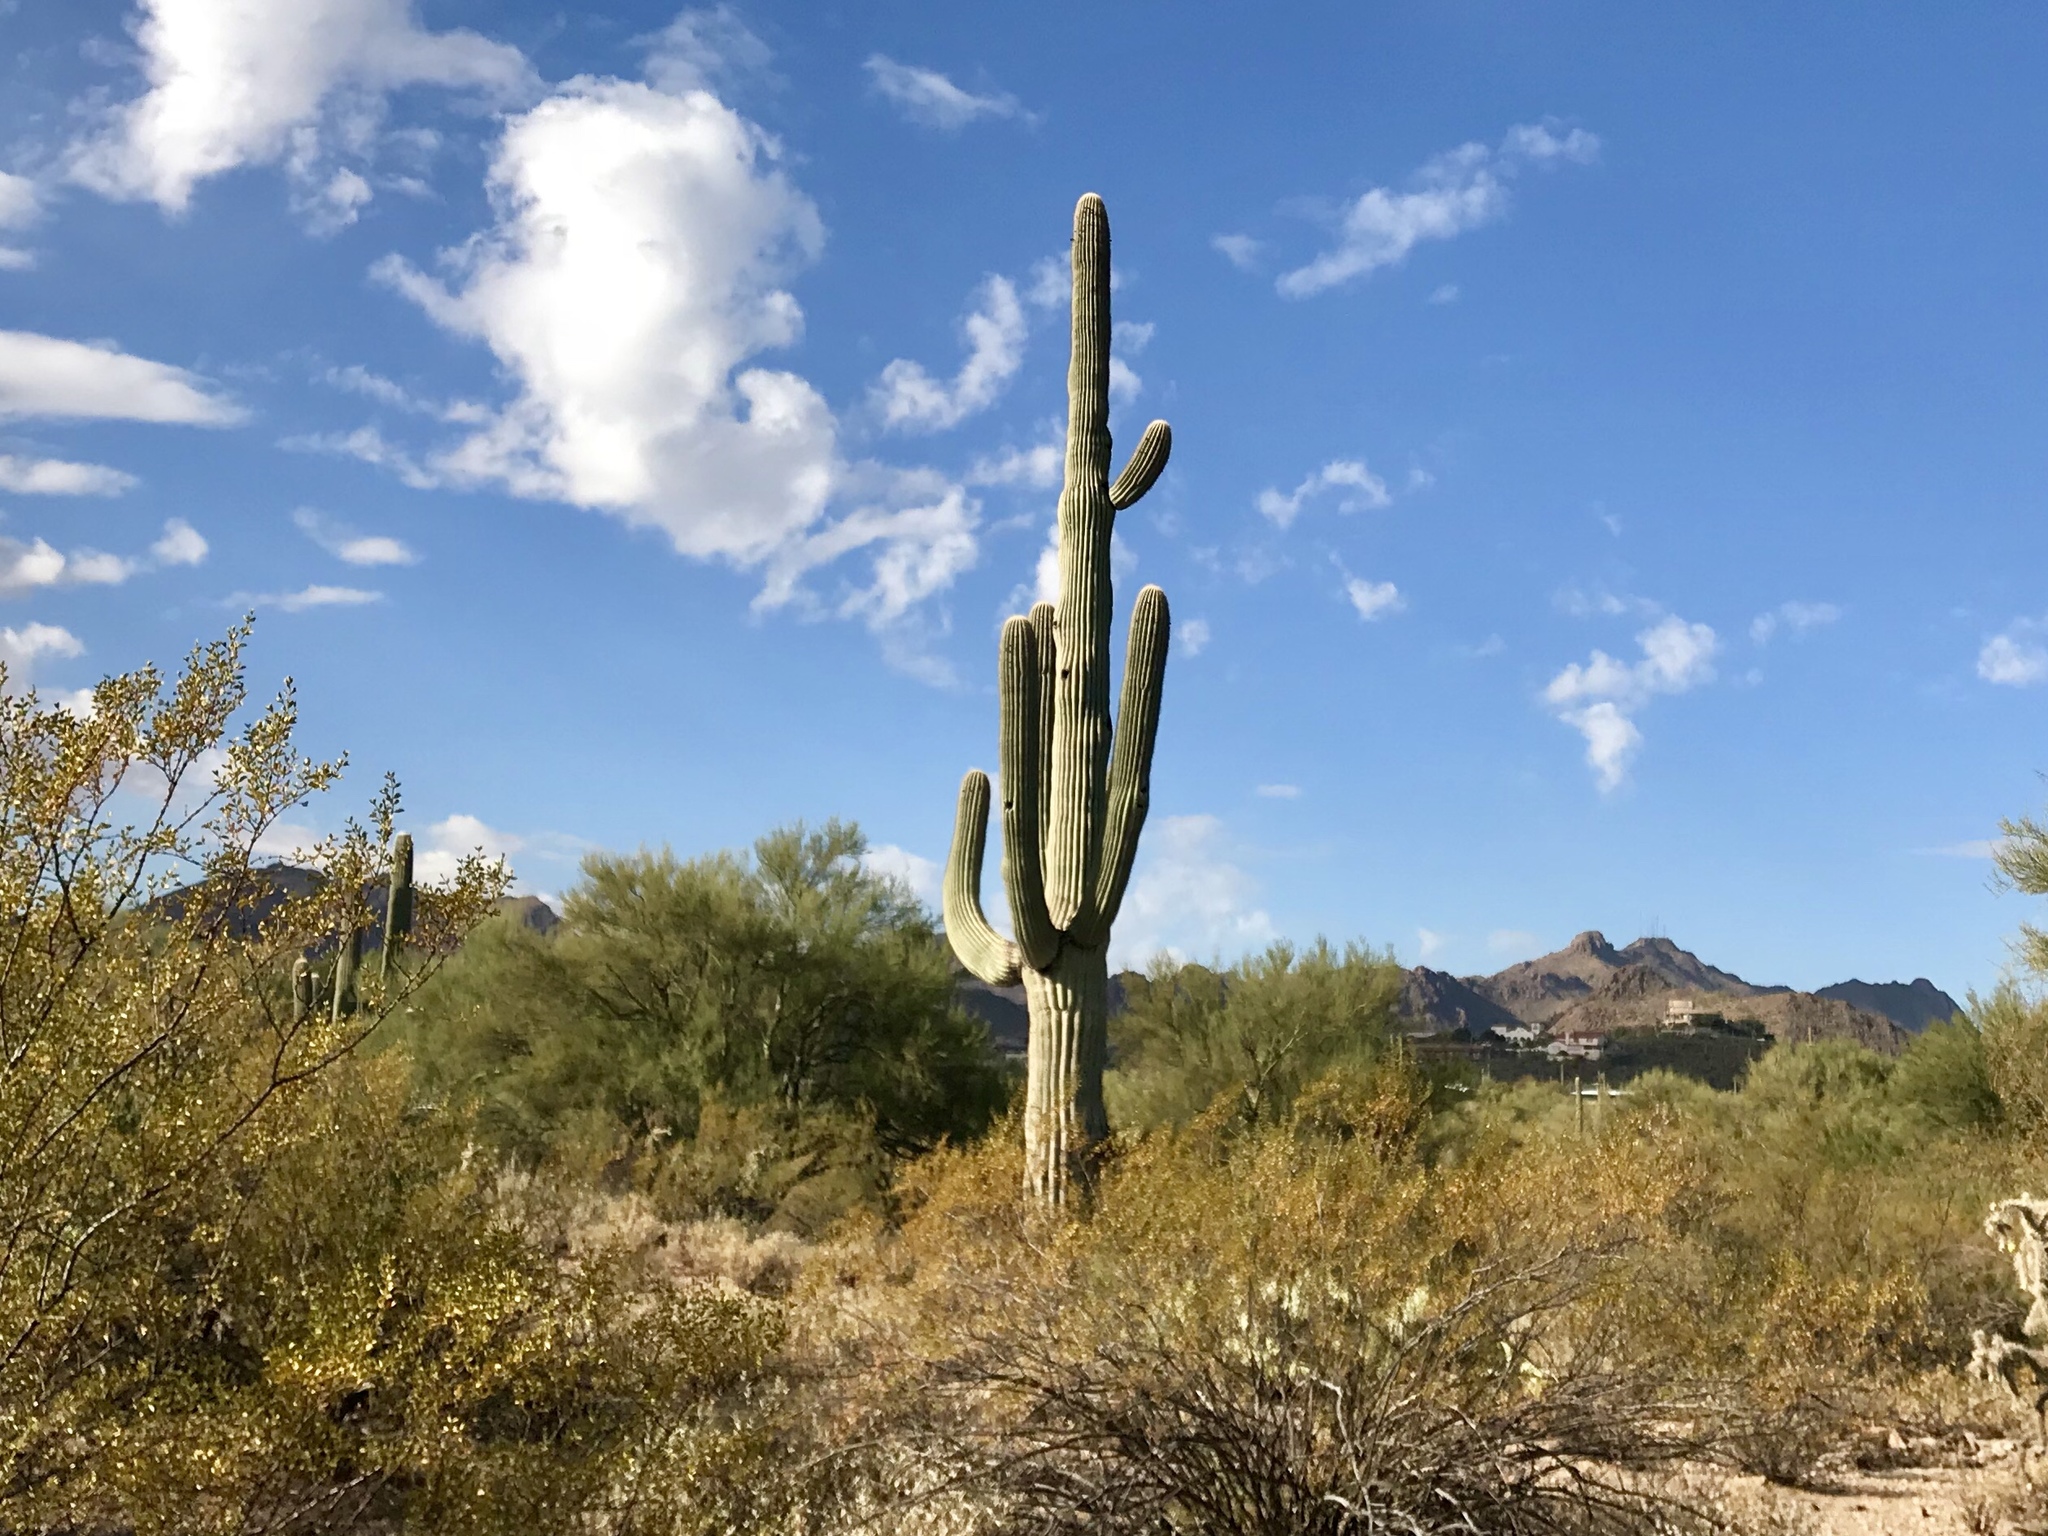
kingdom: Plantae
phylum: Tracheophyta
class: Magnoliopsida
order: Caryophyllales
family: Cactaceae
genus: Carnegiea
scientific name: Carnegiea gigantea
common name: Saguaro
